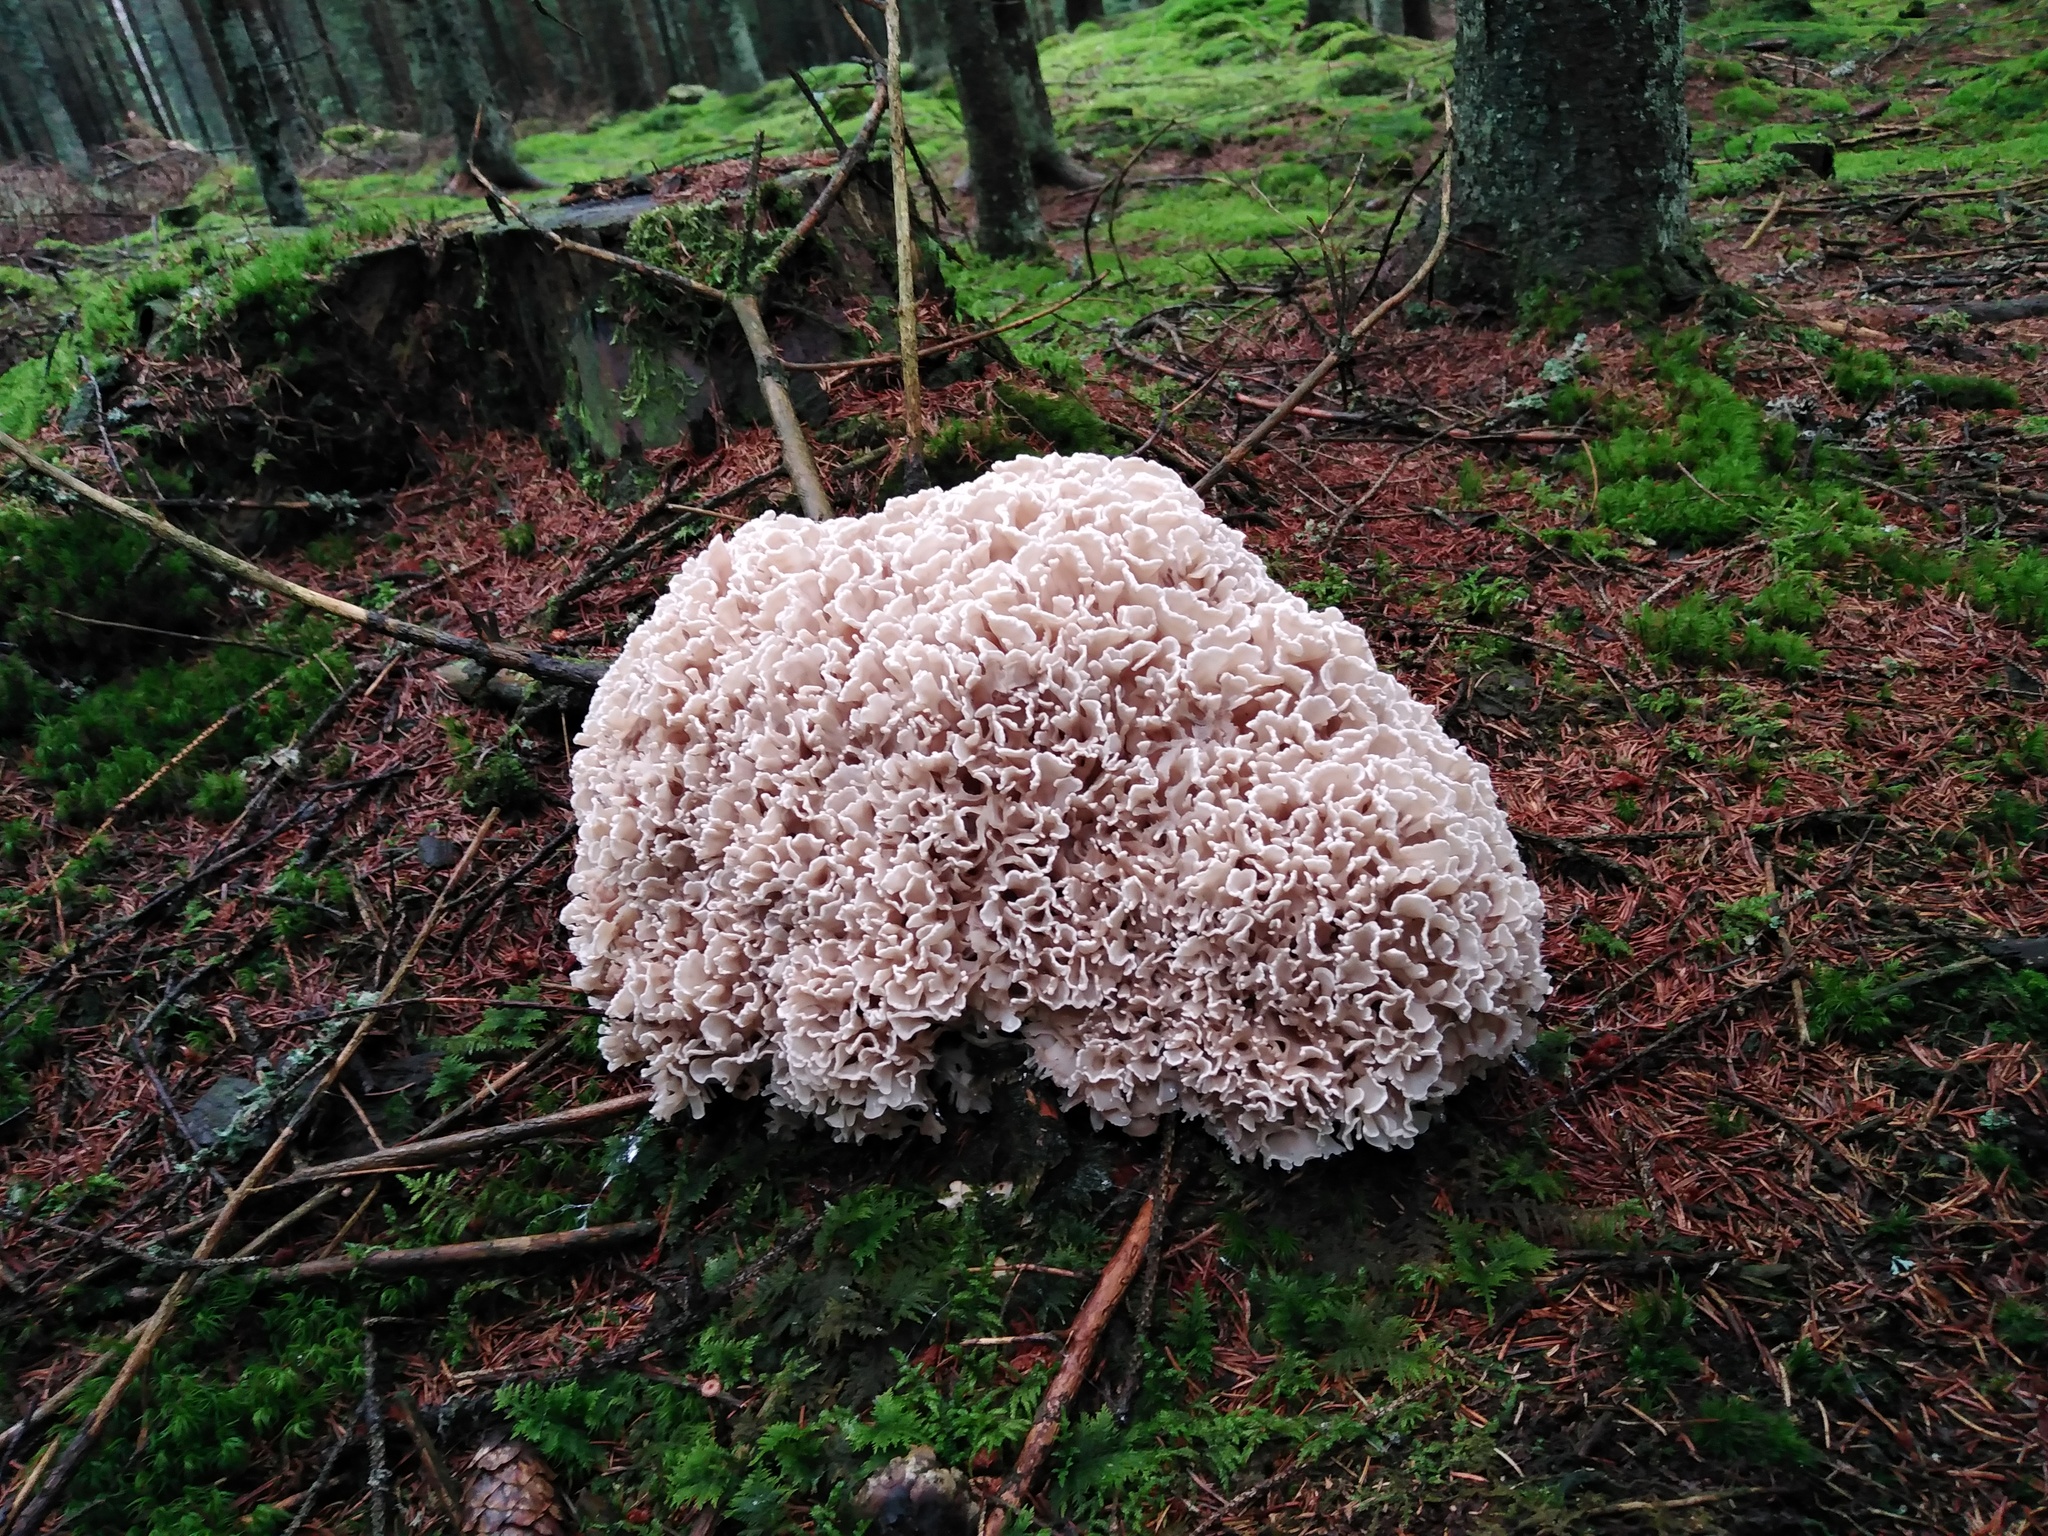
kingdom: Fungi
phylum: Basidiomycota
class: Agaricomycetes
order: Polyporales
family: Sparassidaceae
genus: Sparassis
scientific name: Sparassis brevipes
